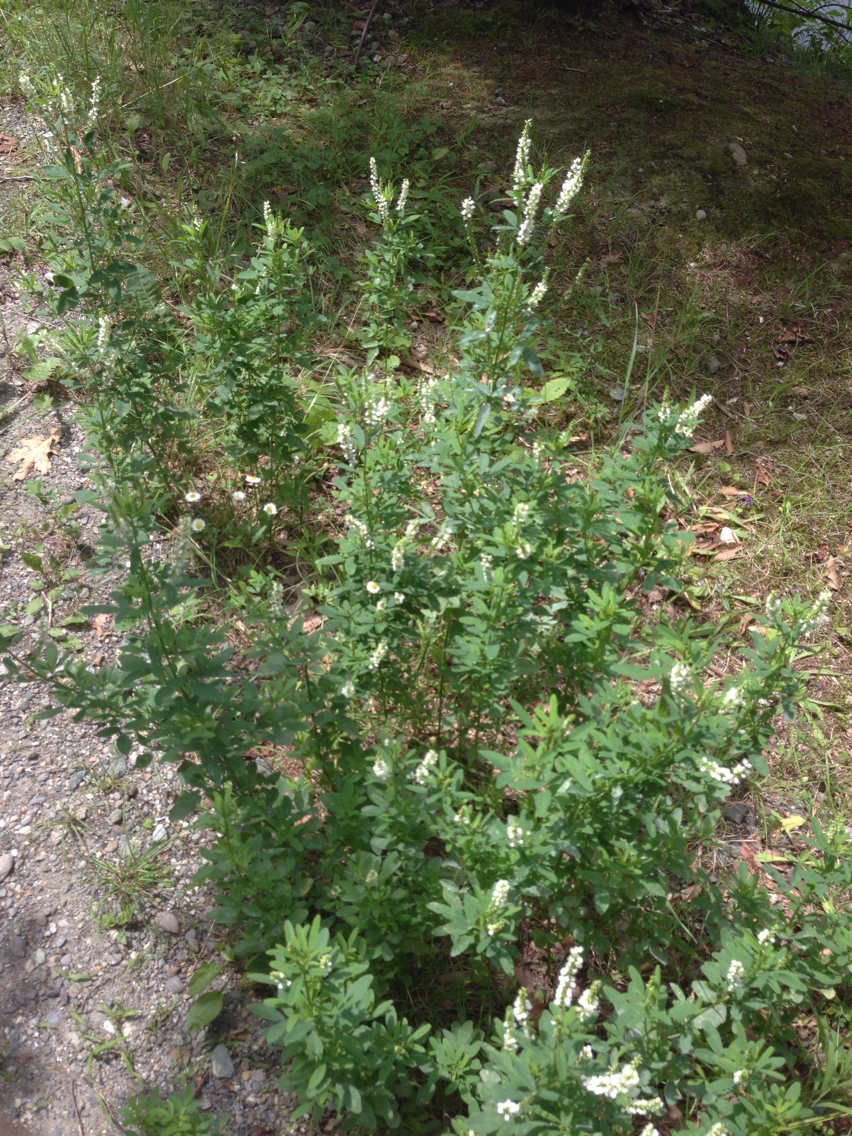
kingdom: Plantae
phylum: Tracheophyta
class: Magnoliopsida
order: Fabales
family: Fabaceae
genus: Melilotus
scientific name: Melilotus albus
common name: White melilot
